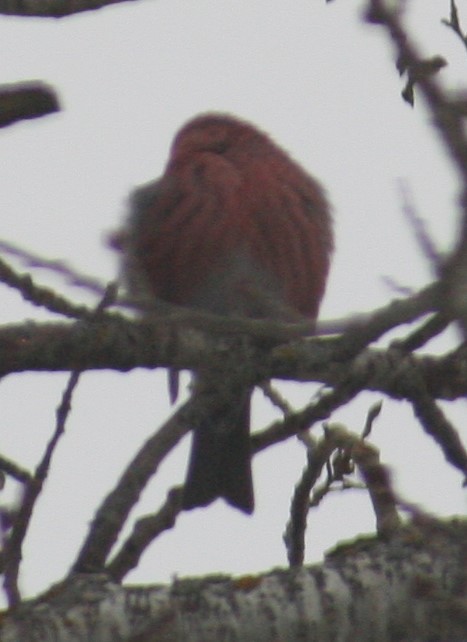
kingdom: Animalia
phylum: Chordata
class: Aves
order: Passeriformes
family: Fringillidae
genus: Pinicola
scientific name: Pinicola enucleator
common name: Pine grosbeak
